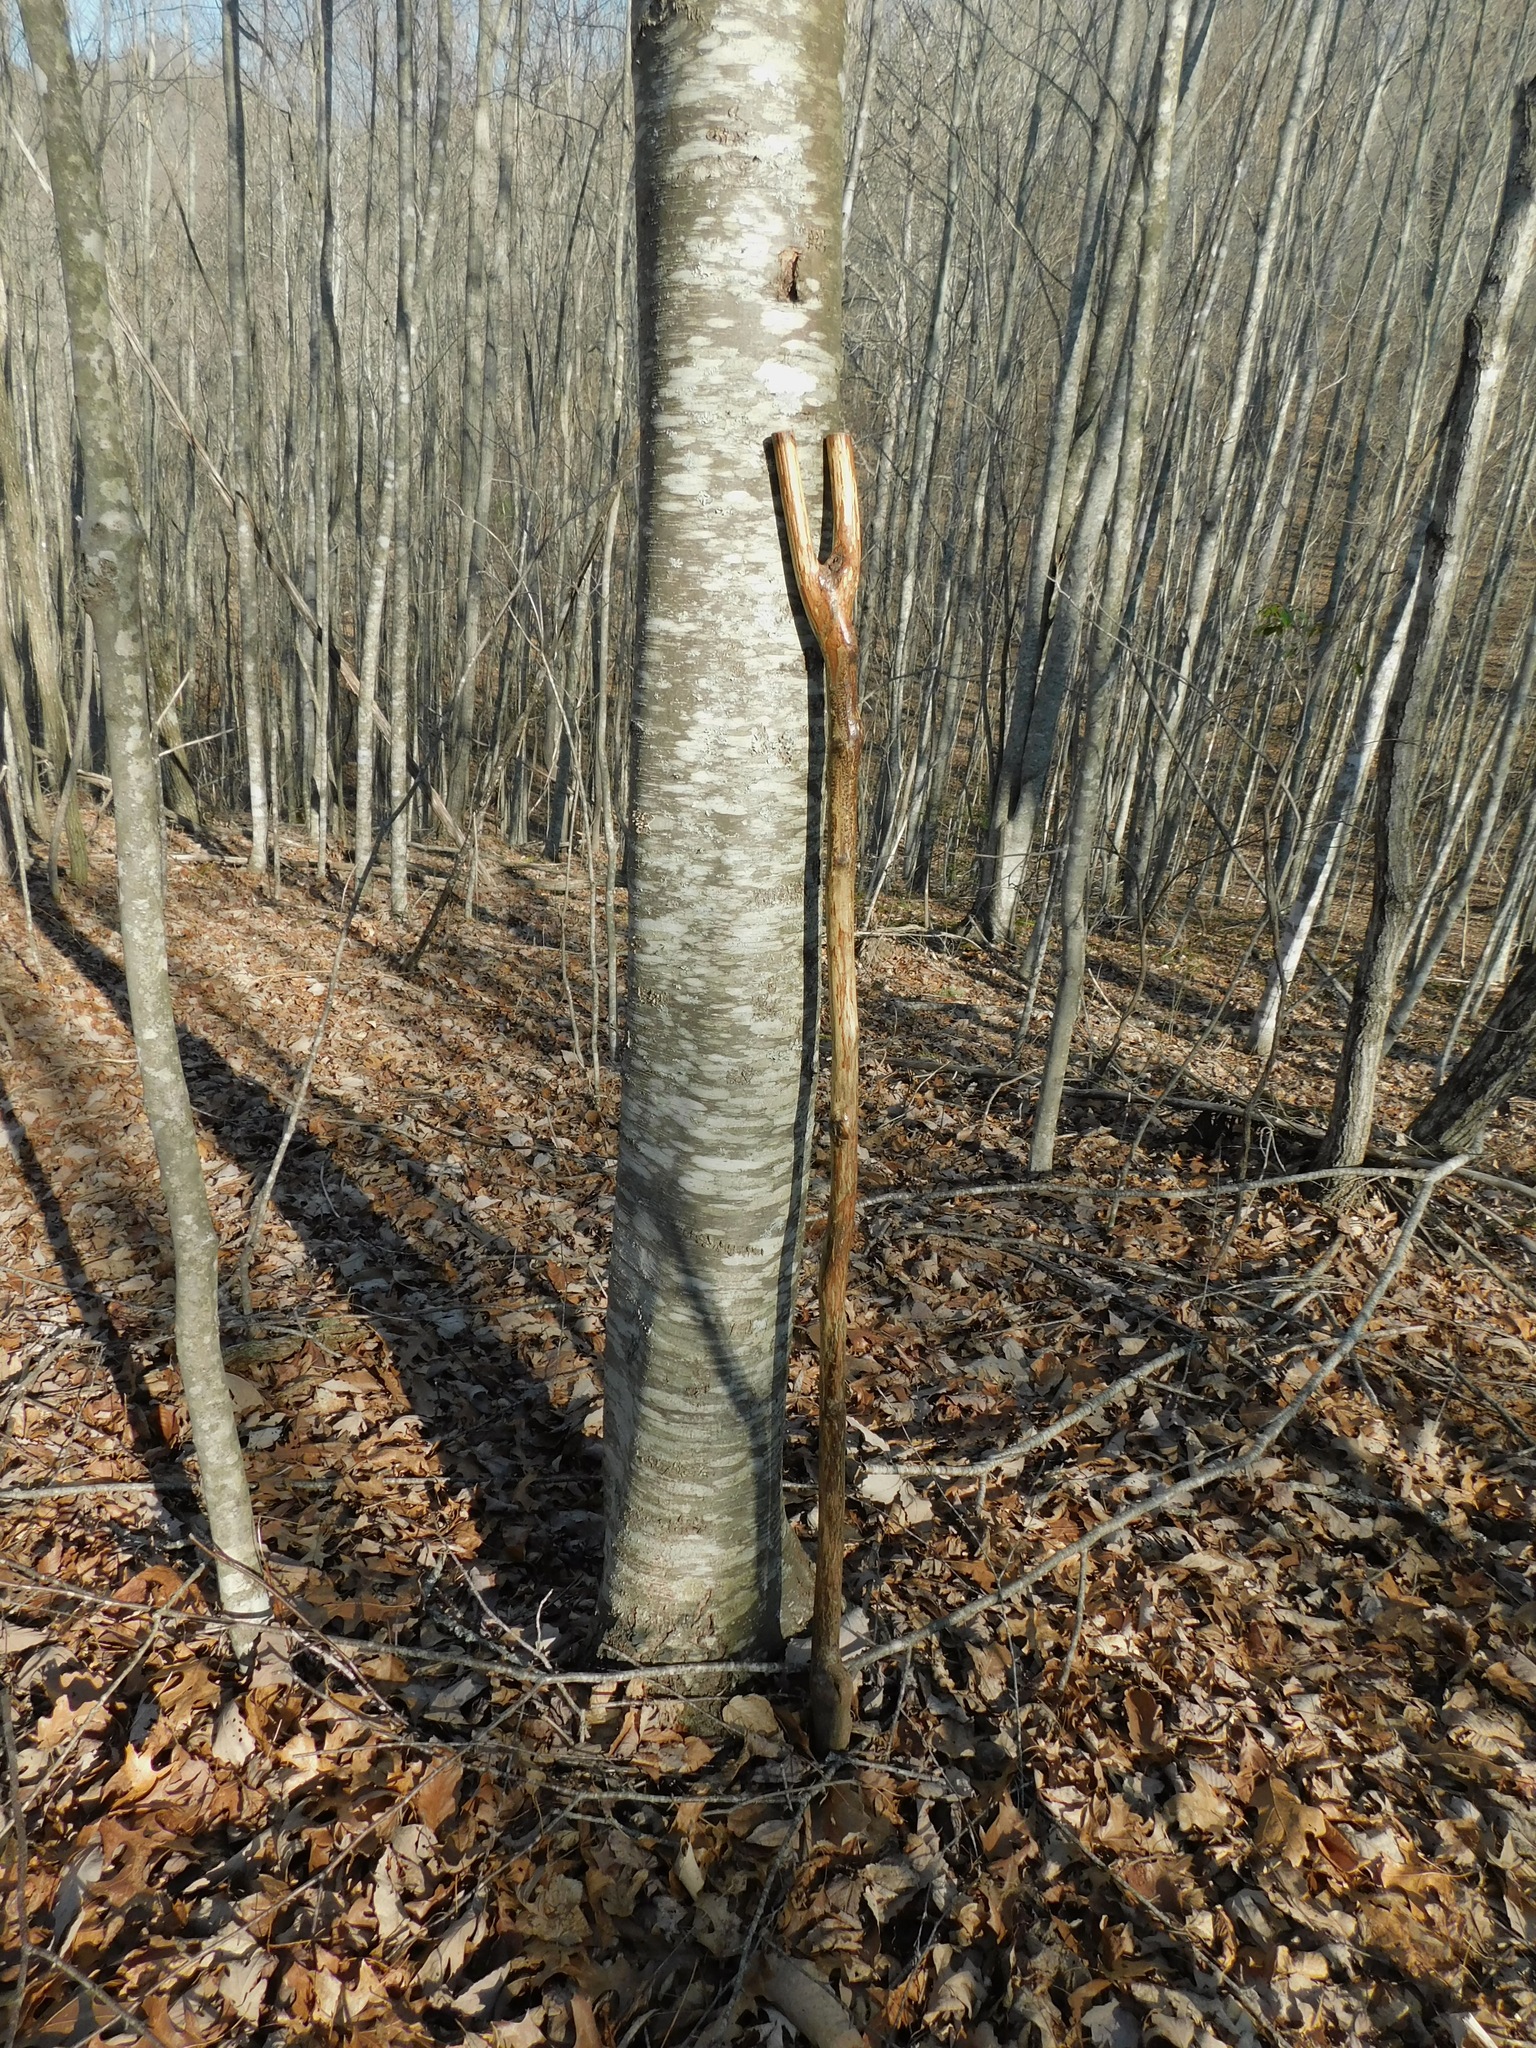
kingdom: Plantae
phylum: Tracheophyta
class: Magnoliopsida
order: Fagales
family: Betulaceae
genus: Betula
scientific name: Betula lenta
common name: Black birch
